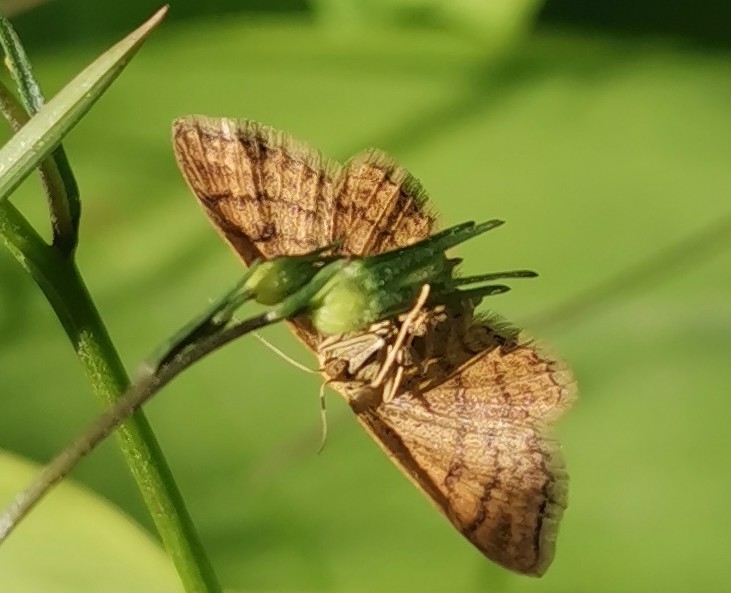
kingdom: Animalia
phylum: Arthropoda
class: Insecta
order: Lepidoptera
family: Geometridae
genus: Idaea
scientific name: Idaea serpentata
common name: Ochraceous wave
